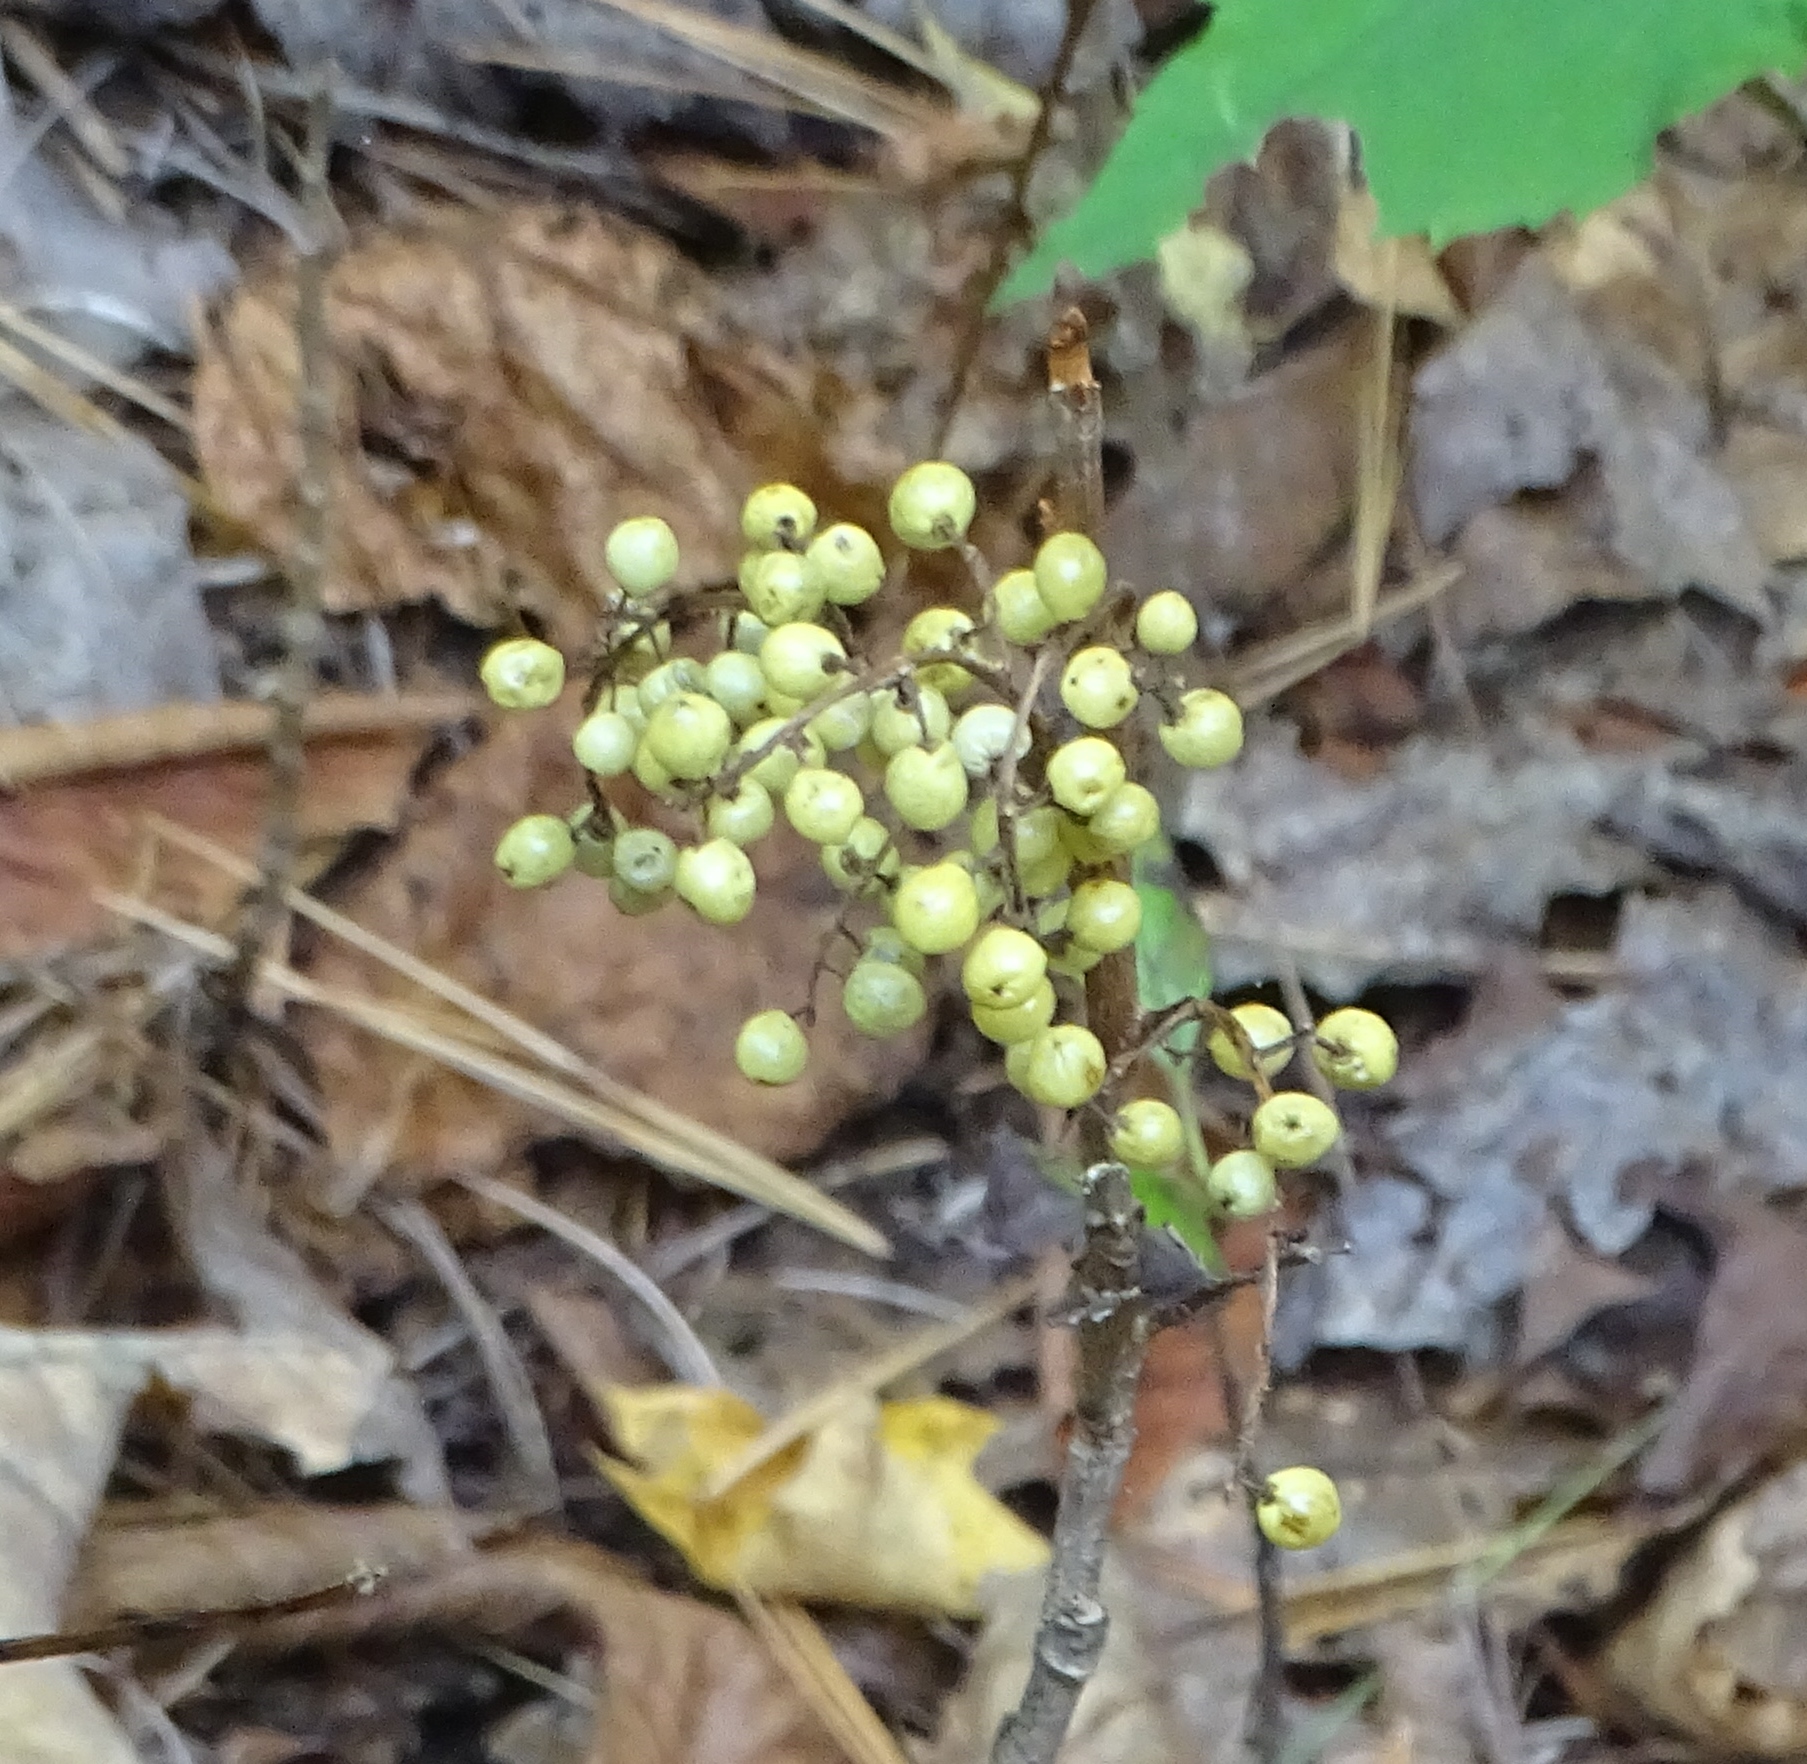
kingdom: Plantae
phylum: Tracheophyta
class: Magnoliopsida
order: Sapindales
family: Anacardiaceae
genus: Toxicodendron
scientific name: Toxicodendron rydbergii
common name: Rydberg's poison-ivy
